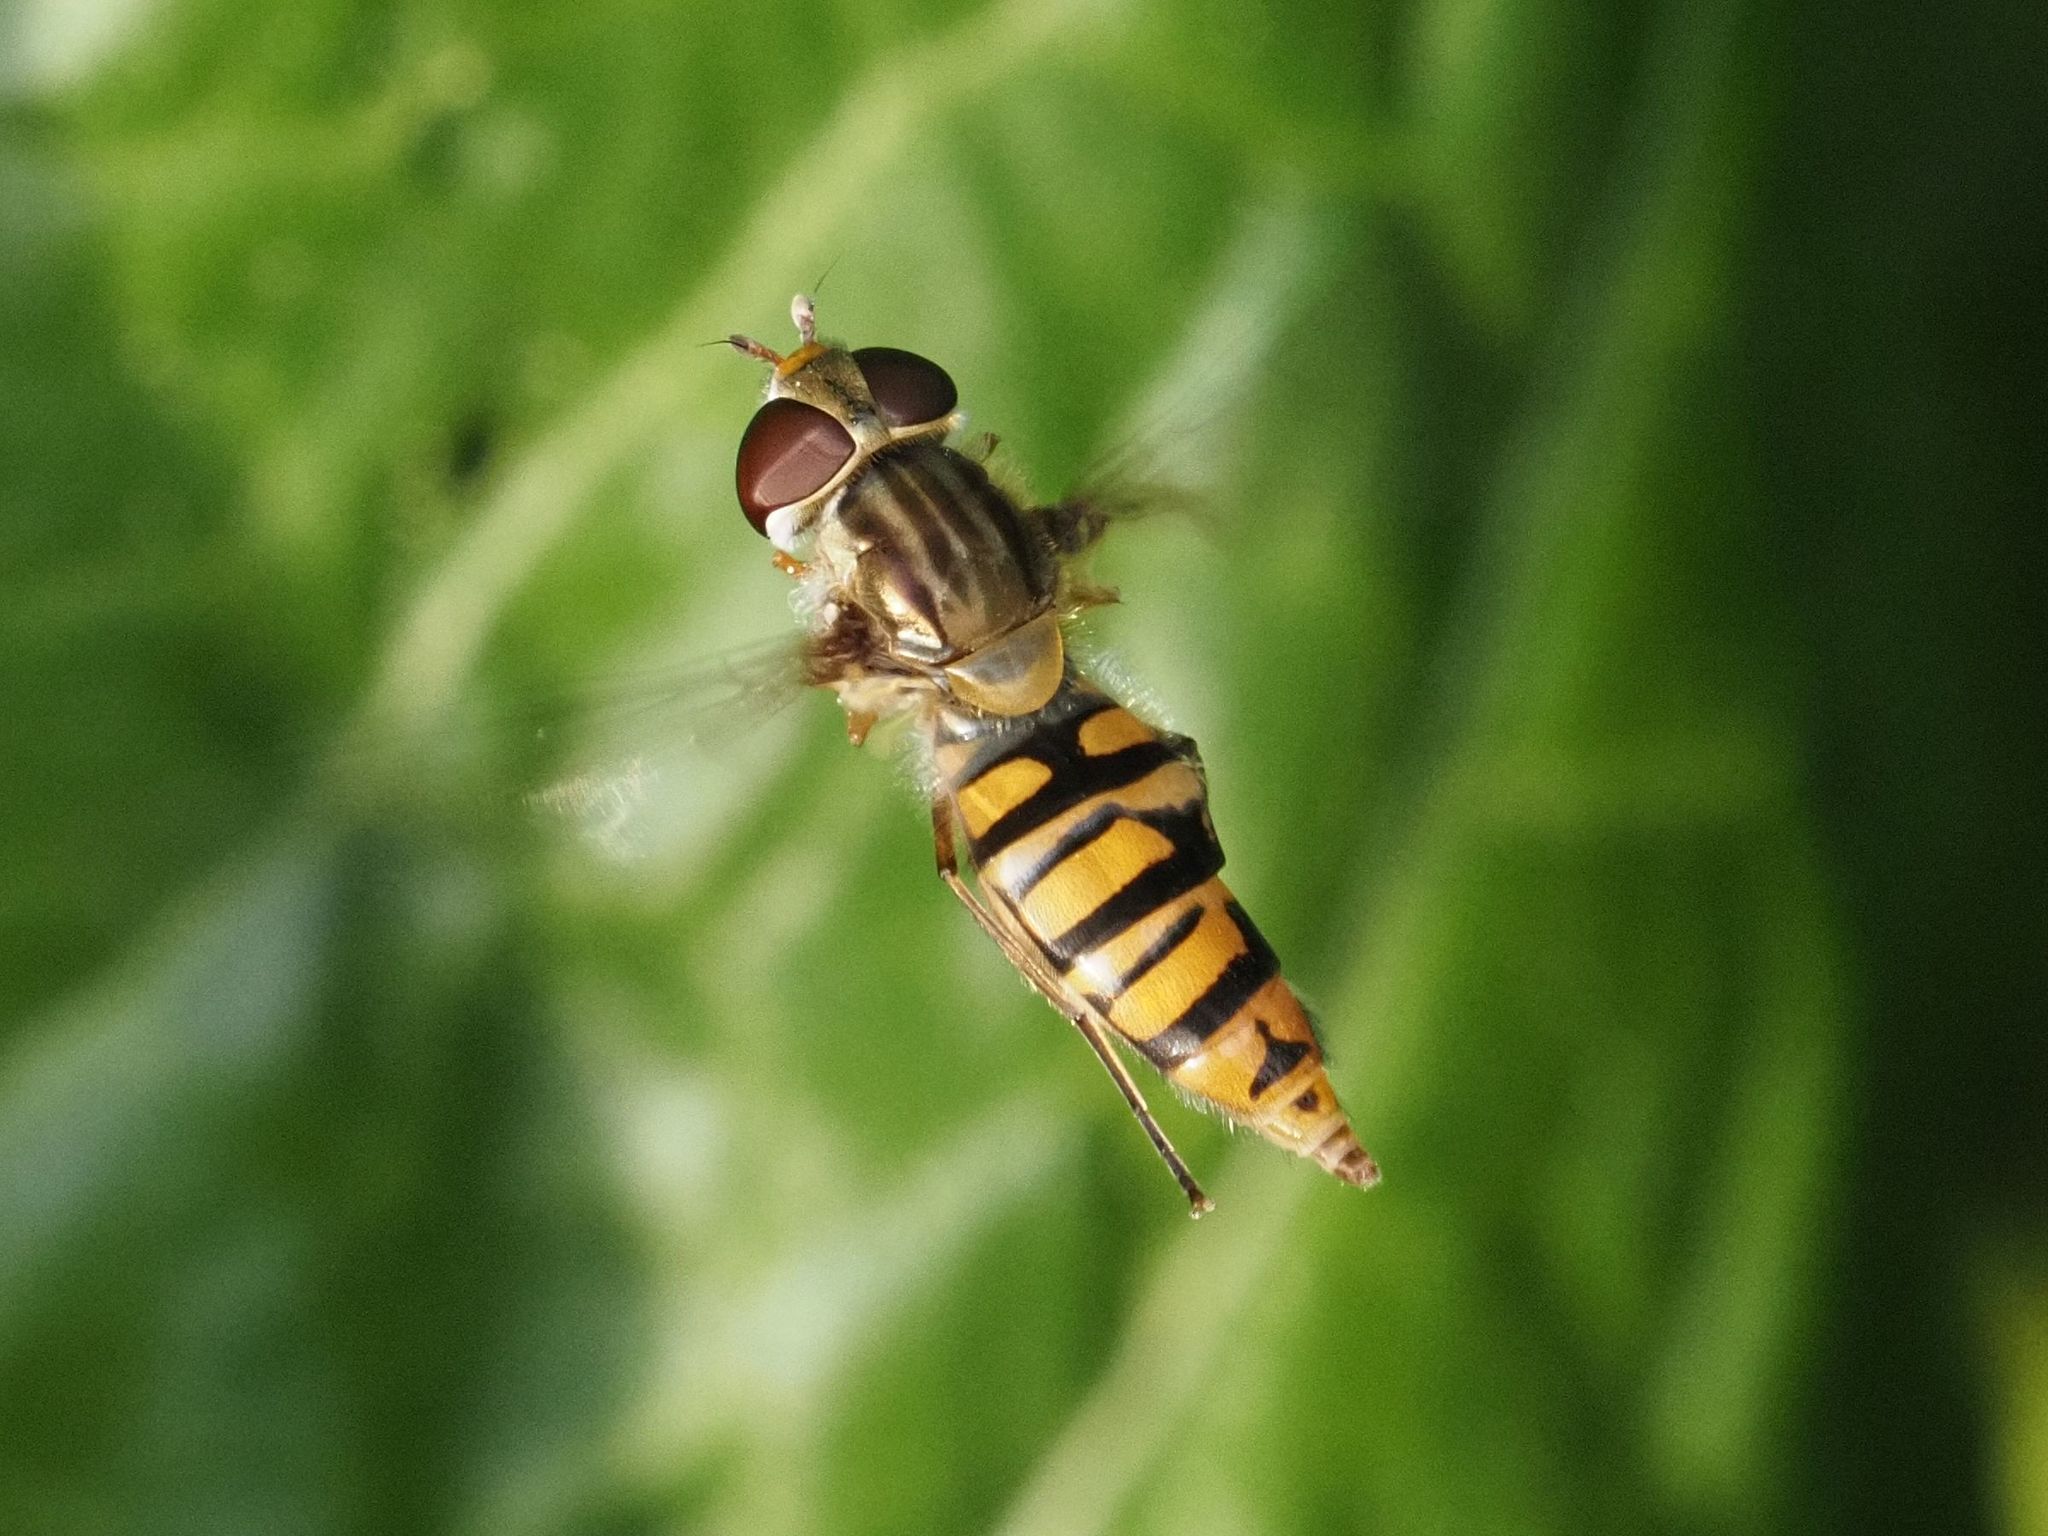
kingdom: Animalia
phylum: Arthropoda
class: Insecta
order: Diptera
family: Syrphidae
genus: Episyrphus
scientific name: Episyrphus balteatus
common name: Marmalade hoverfly
